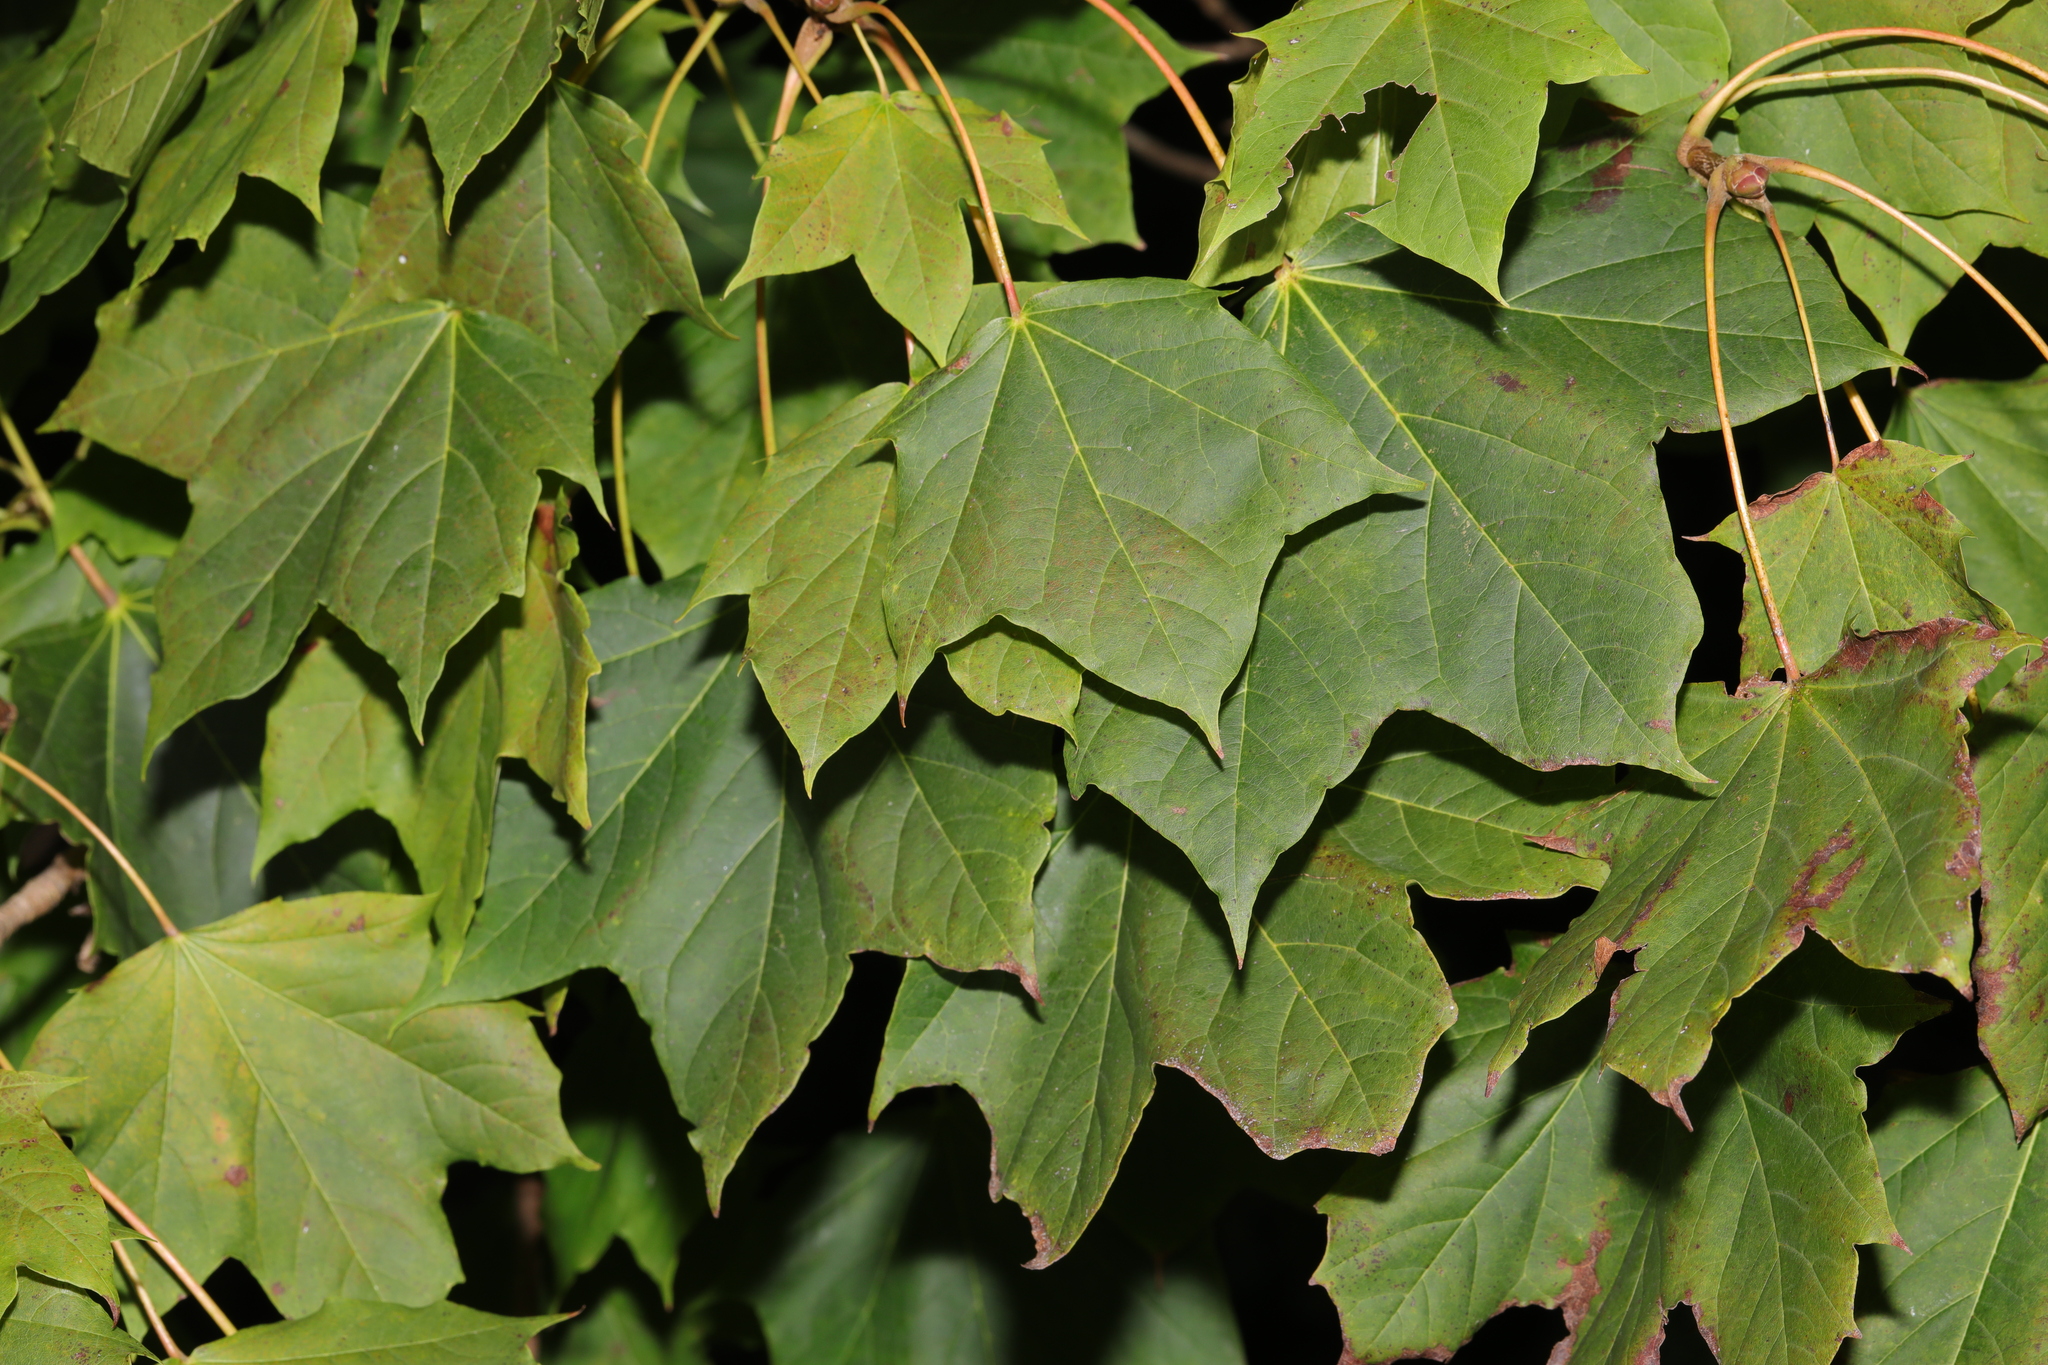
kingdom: Plantae
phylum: Tracheophyta
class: Magnoliopsida
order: Sapindales
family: Sapindaceae
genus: Acer
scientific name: Acer platanoides
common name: Norway maple
